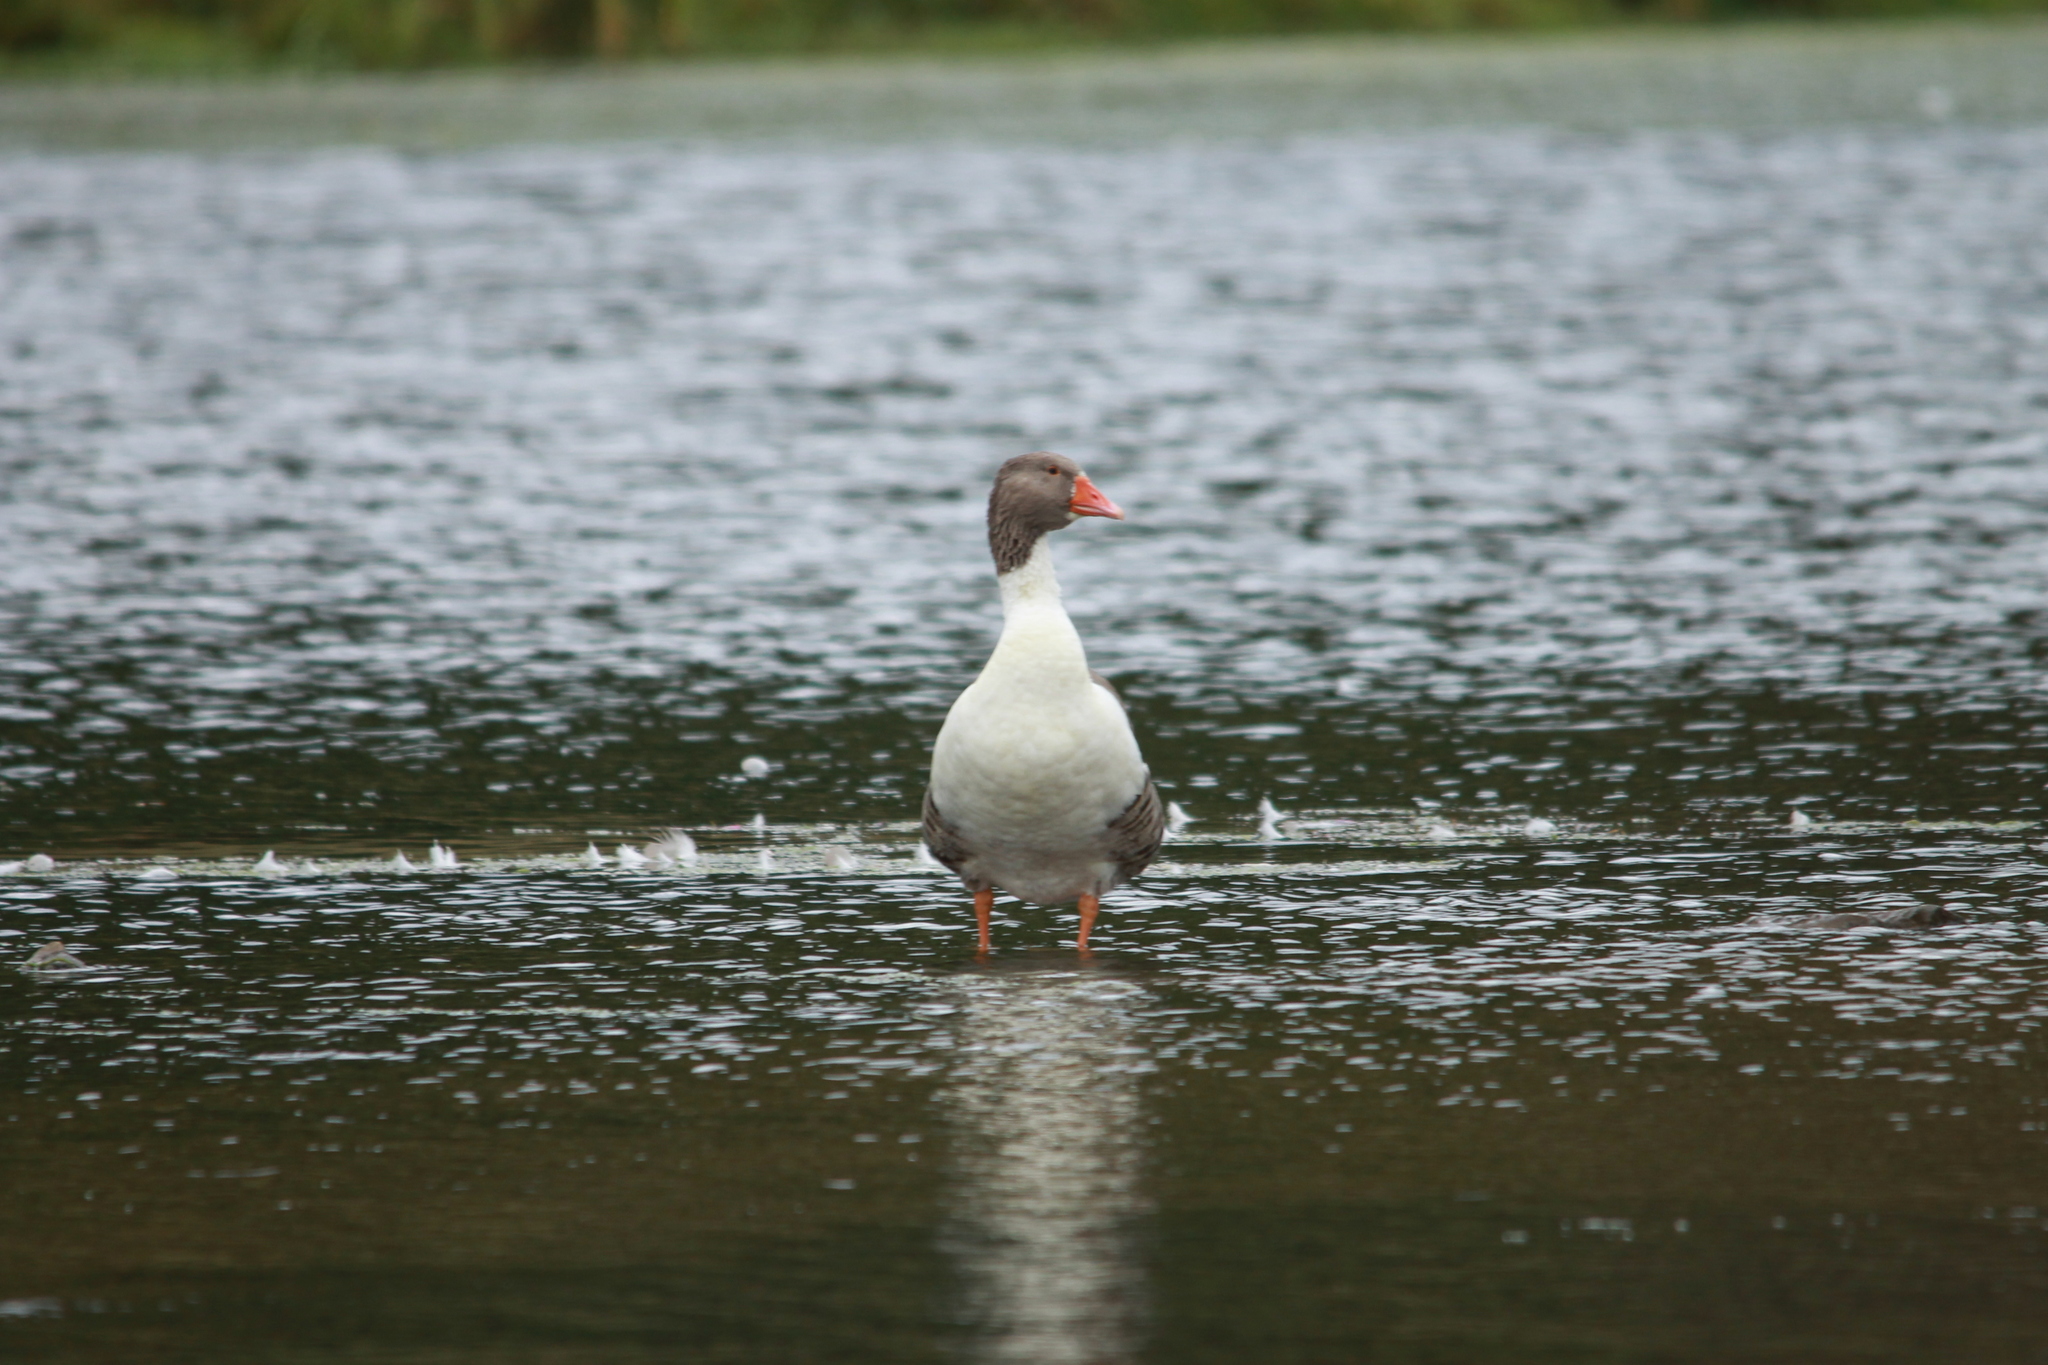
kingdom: Animalia
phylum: Chordata
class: Aves
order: Anseriformes
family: Anatidae
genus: Anser
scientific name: Anser anser
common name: Greylag goose
